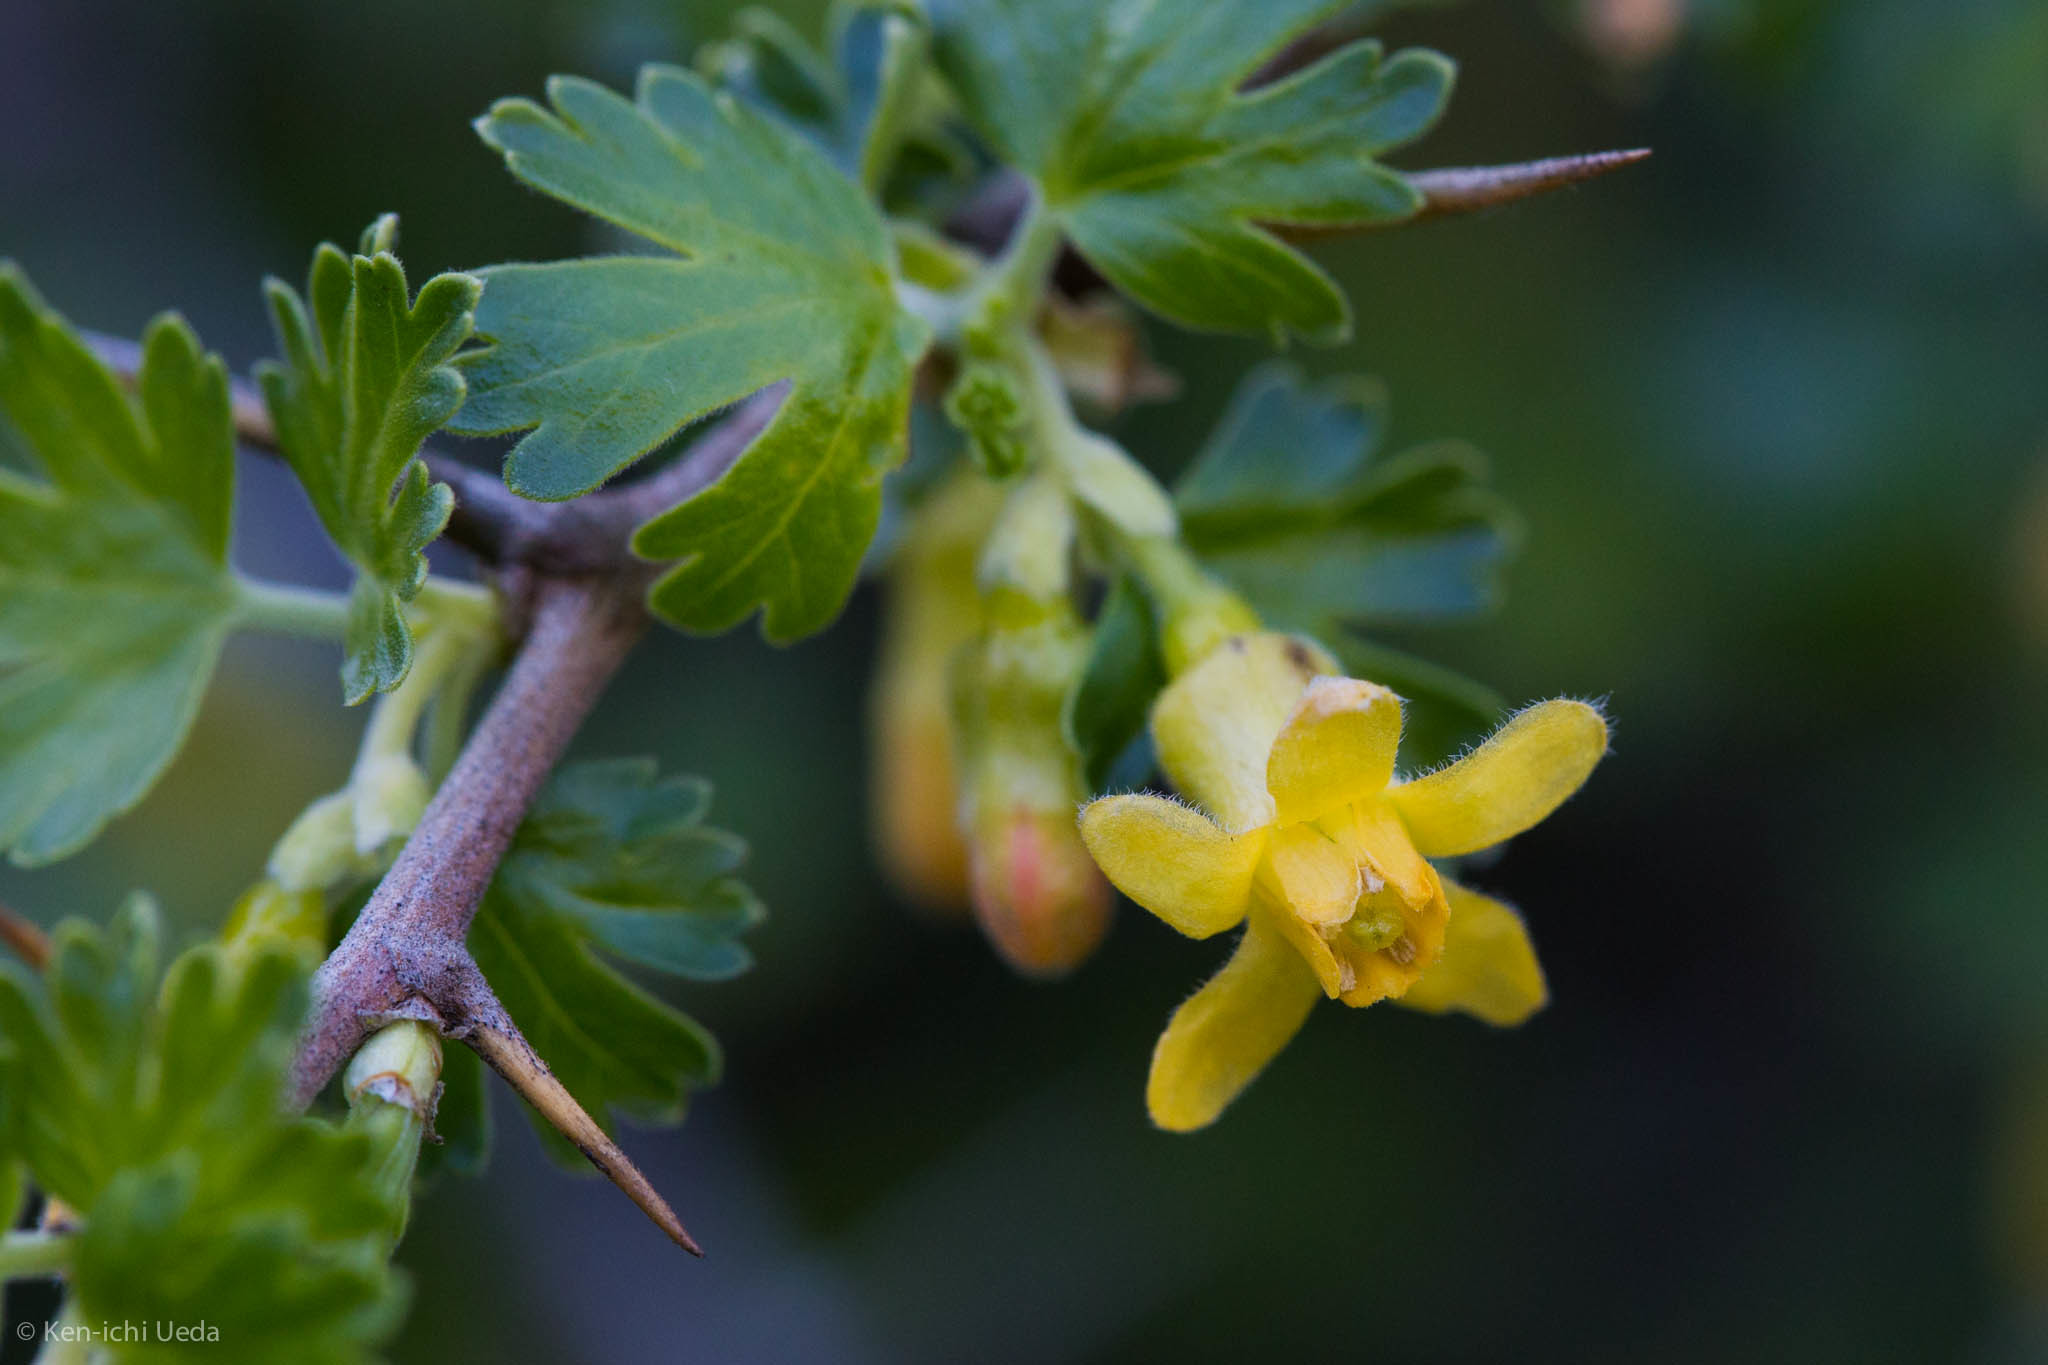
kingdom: Plantae
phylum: Tracheophyta
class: Magnoliopsida
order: Saxifragales
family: Grossulariaceae
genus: Ribes
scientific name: Ribes quercetorum
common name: Oak gooseberry
